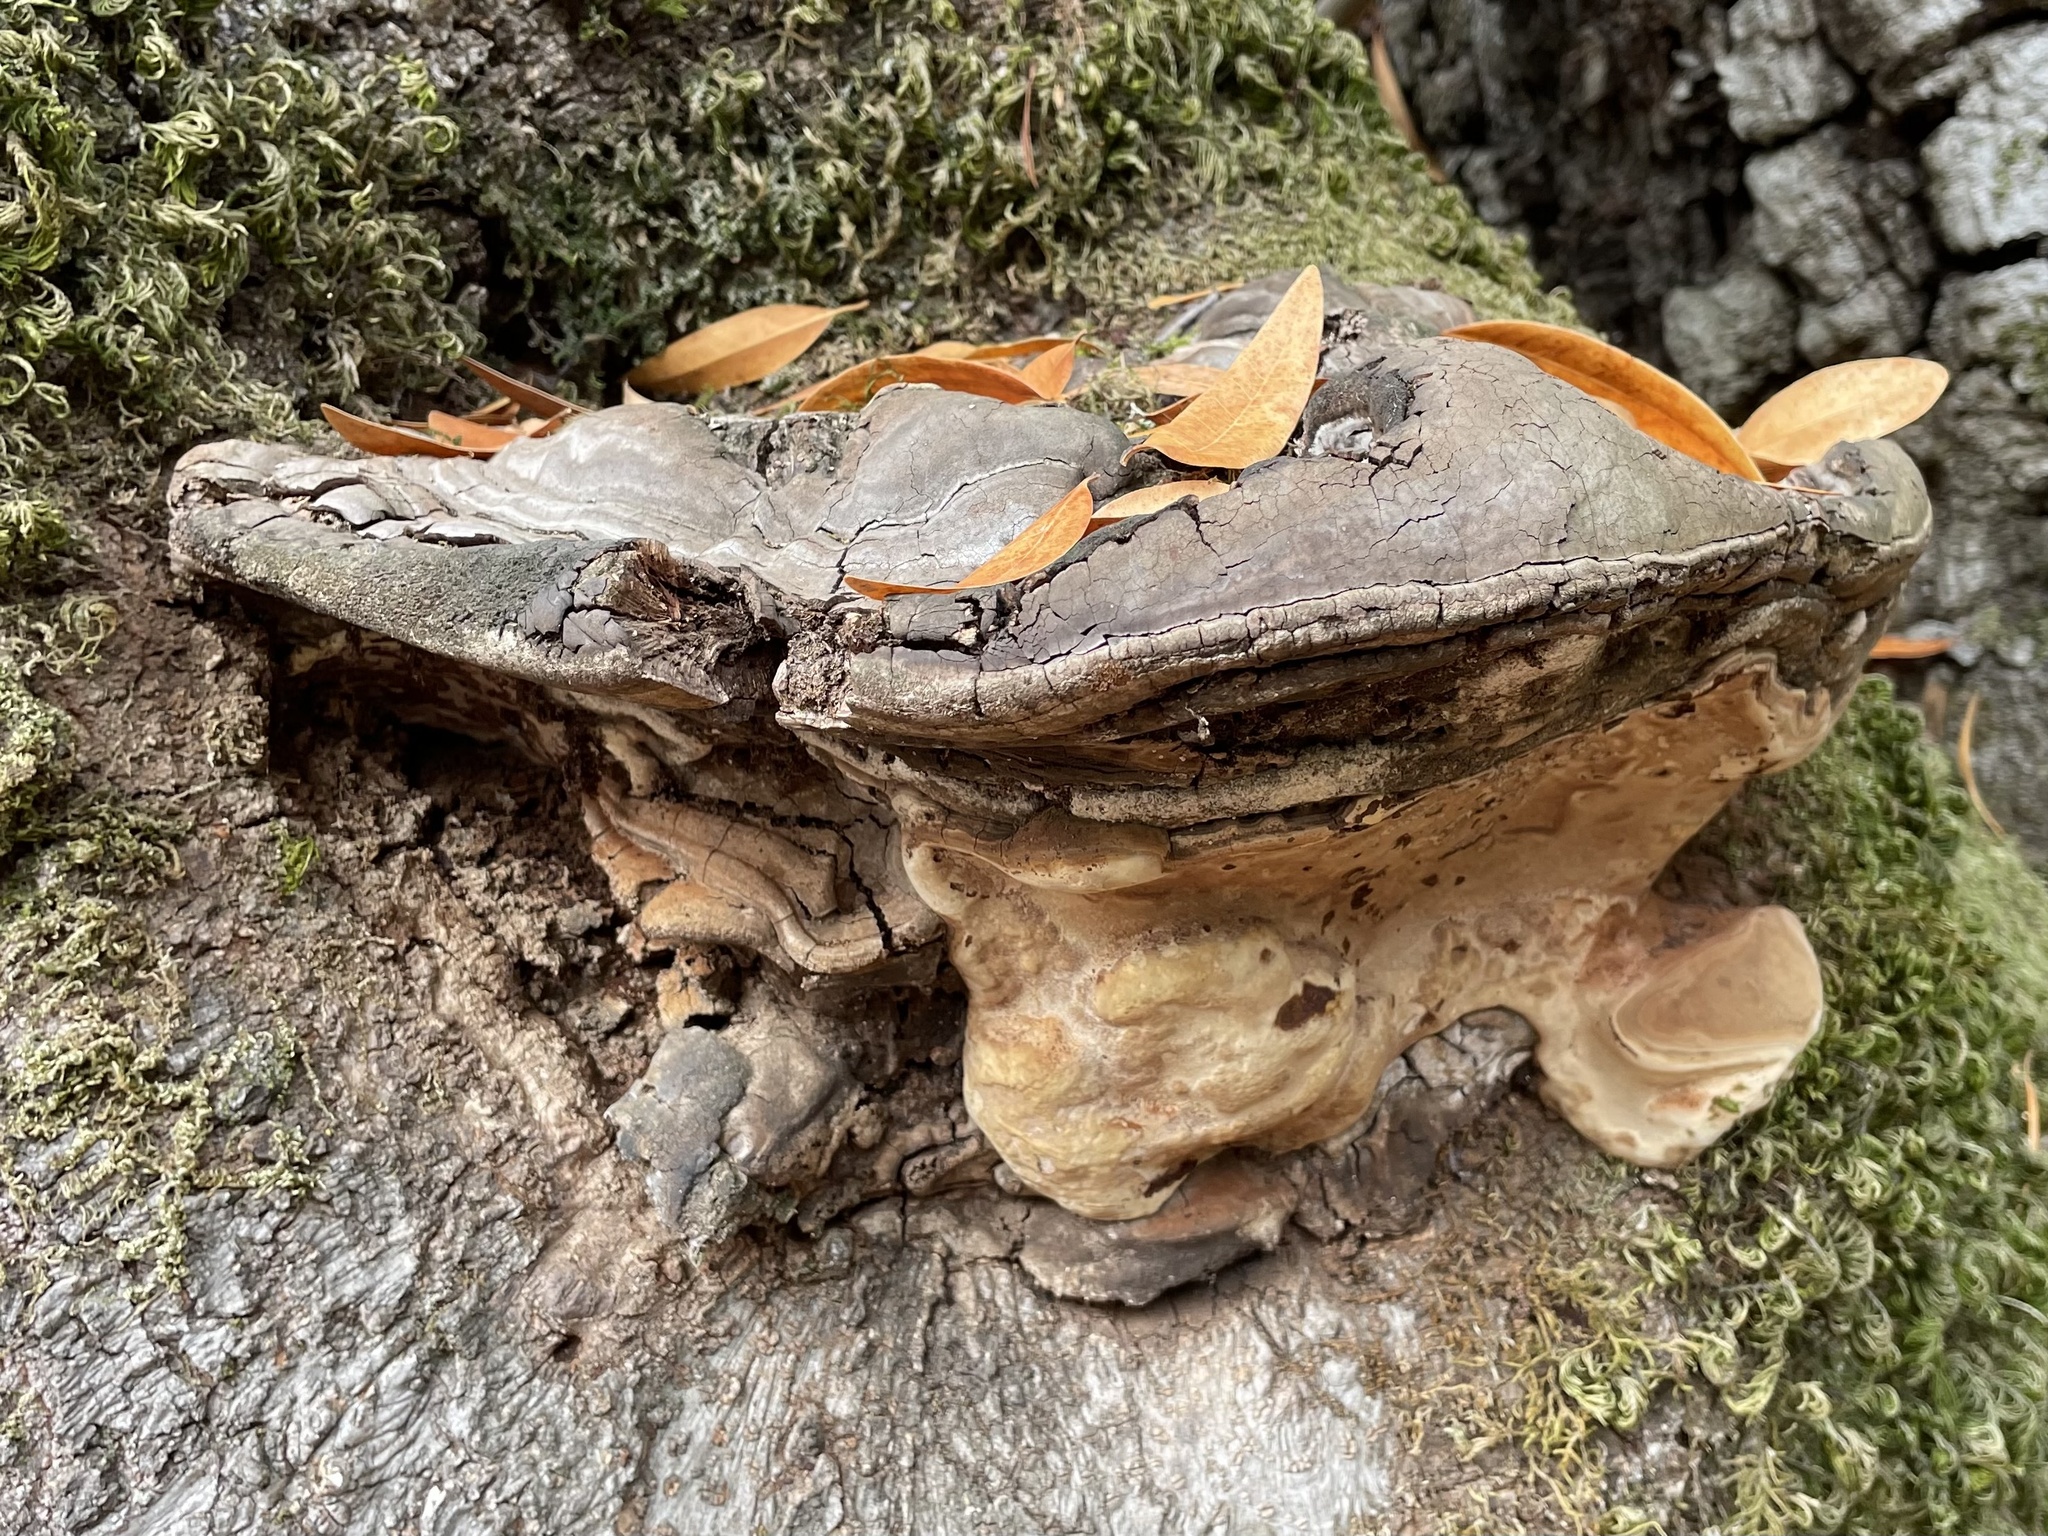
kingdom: Fungi
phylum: Basidiomycota
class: Agaricomycetes
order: Polyporales
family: Polyporaceae
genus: Ganoderma
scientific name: Ganoderma brownii
